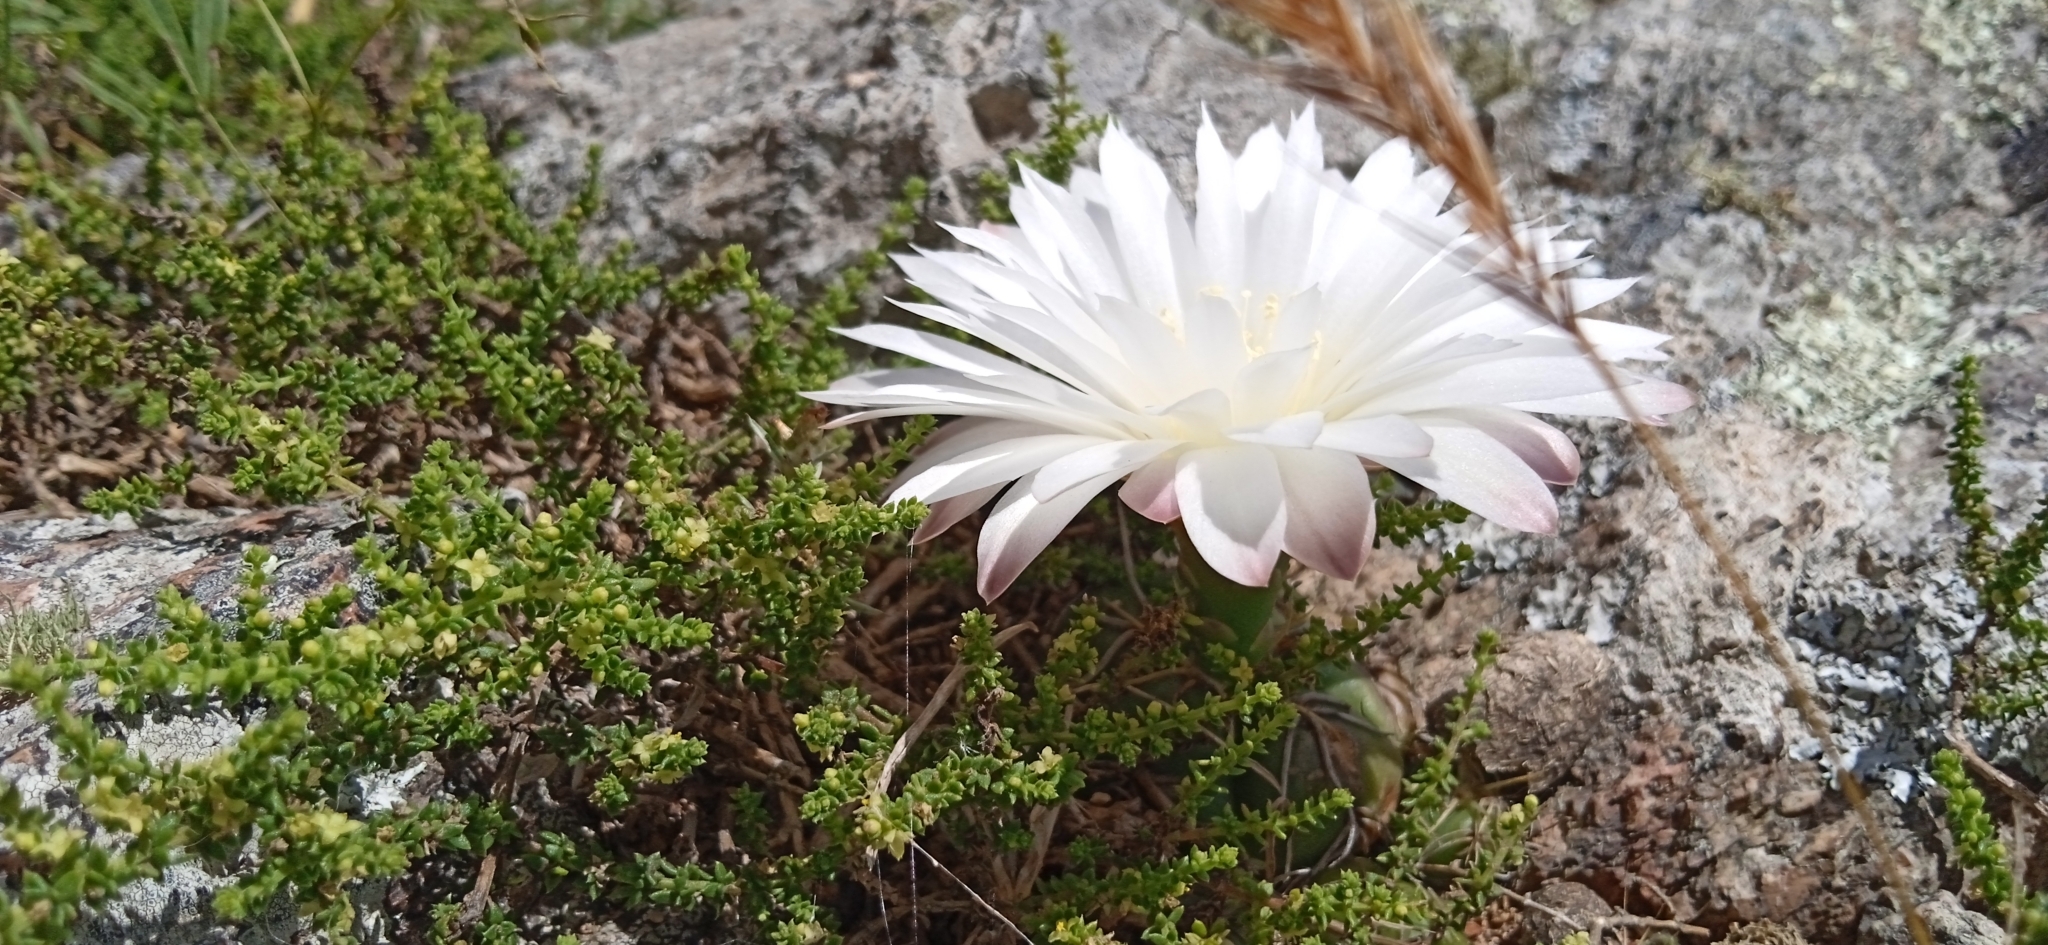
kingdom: Plantae
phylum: Tracheophyta
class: Magnoliopsida
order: Caryophyllales
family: Cactaceae
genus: Gymnocalycium
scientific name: Gymnocalycium denudatum
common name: Spider cactus
